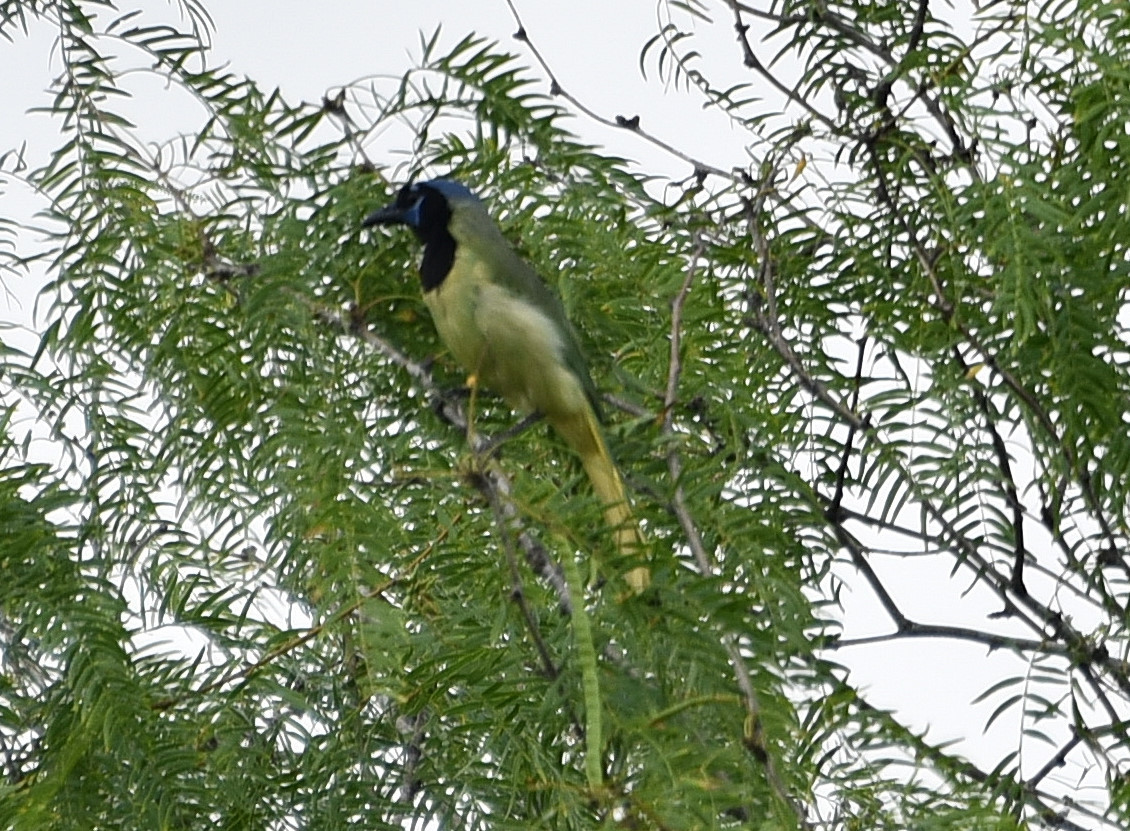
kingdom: Animalia
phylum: Chordata
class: Aves
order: Passeriformes
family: Corvidae
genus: Cyanocorax
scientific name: Cyanocorax yncas
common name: Green jay
